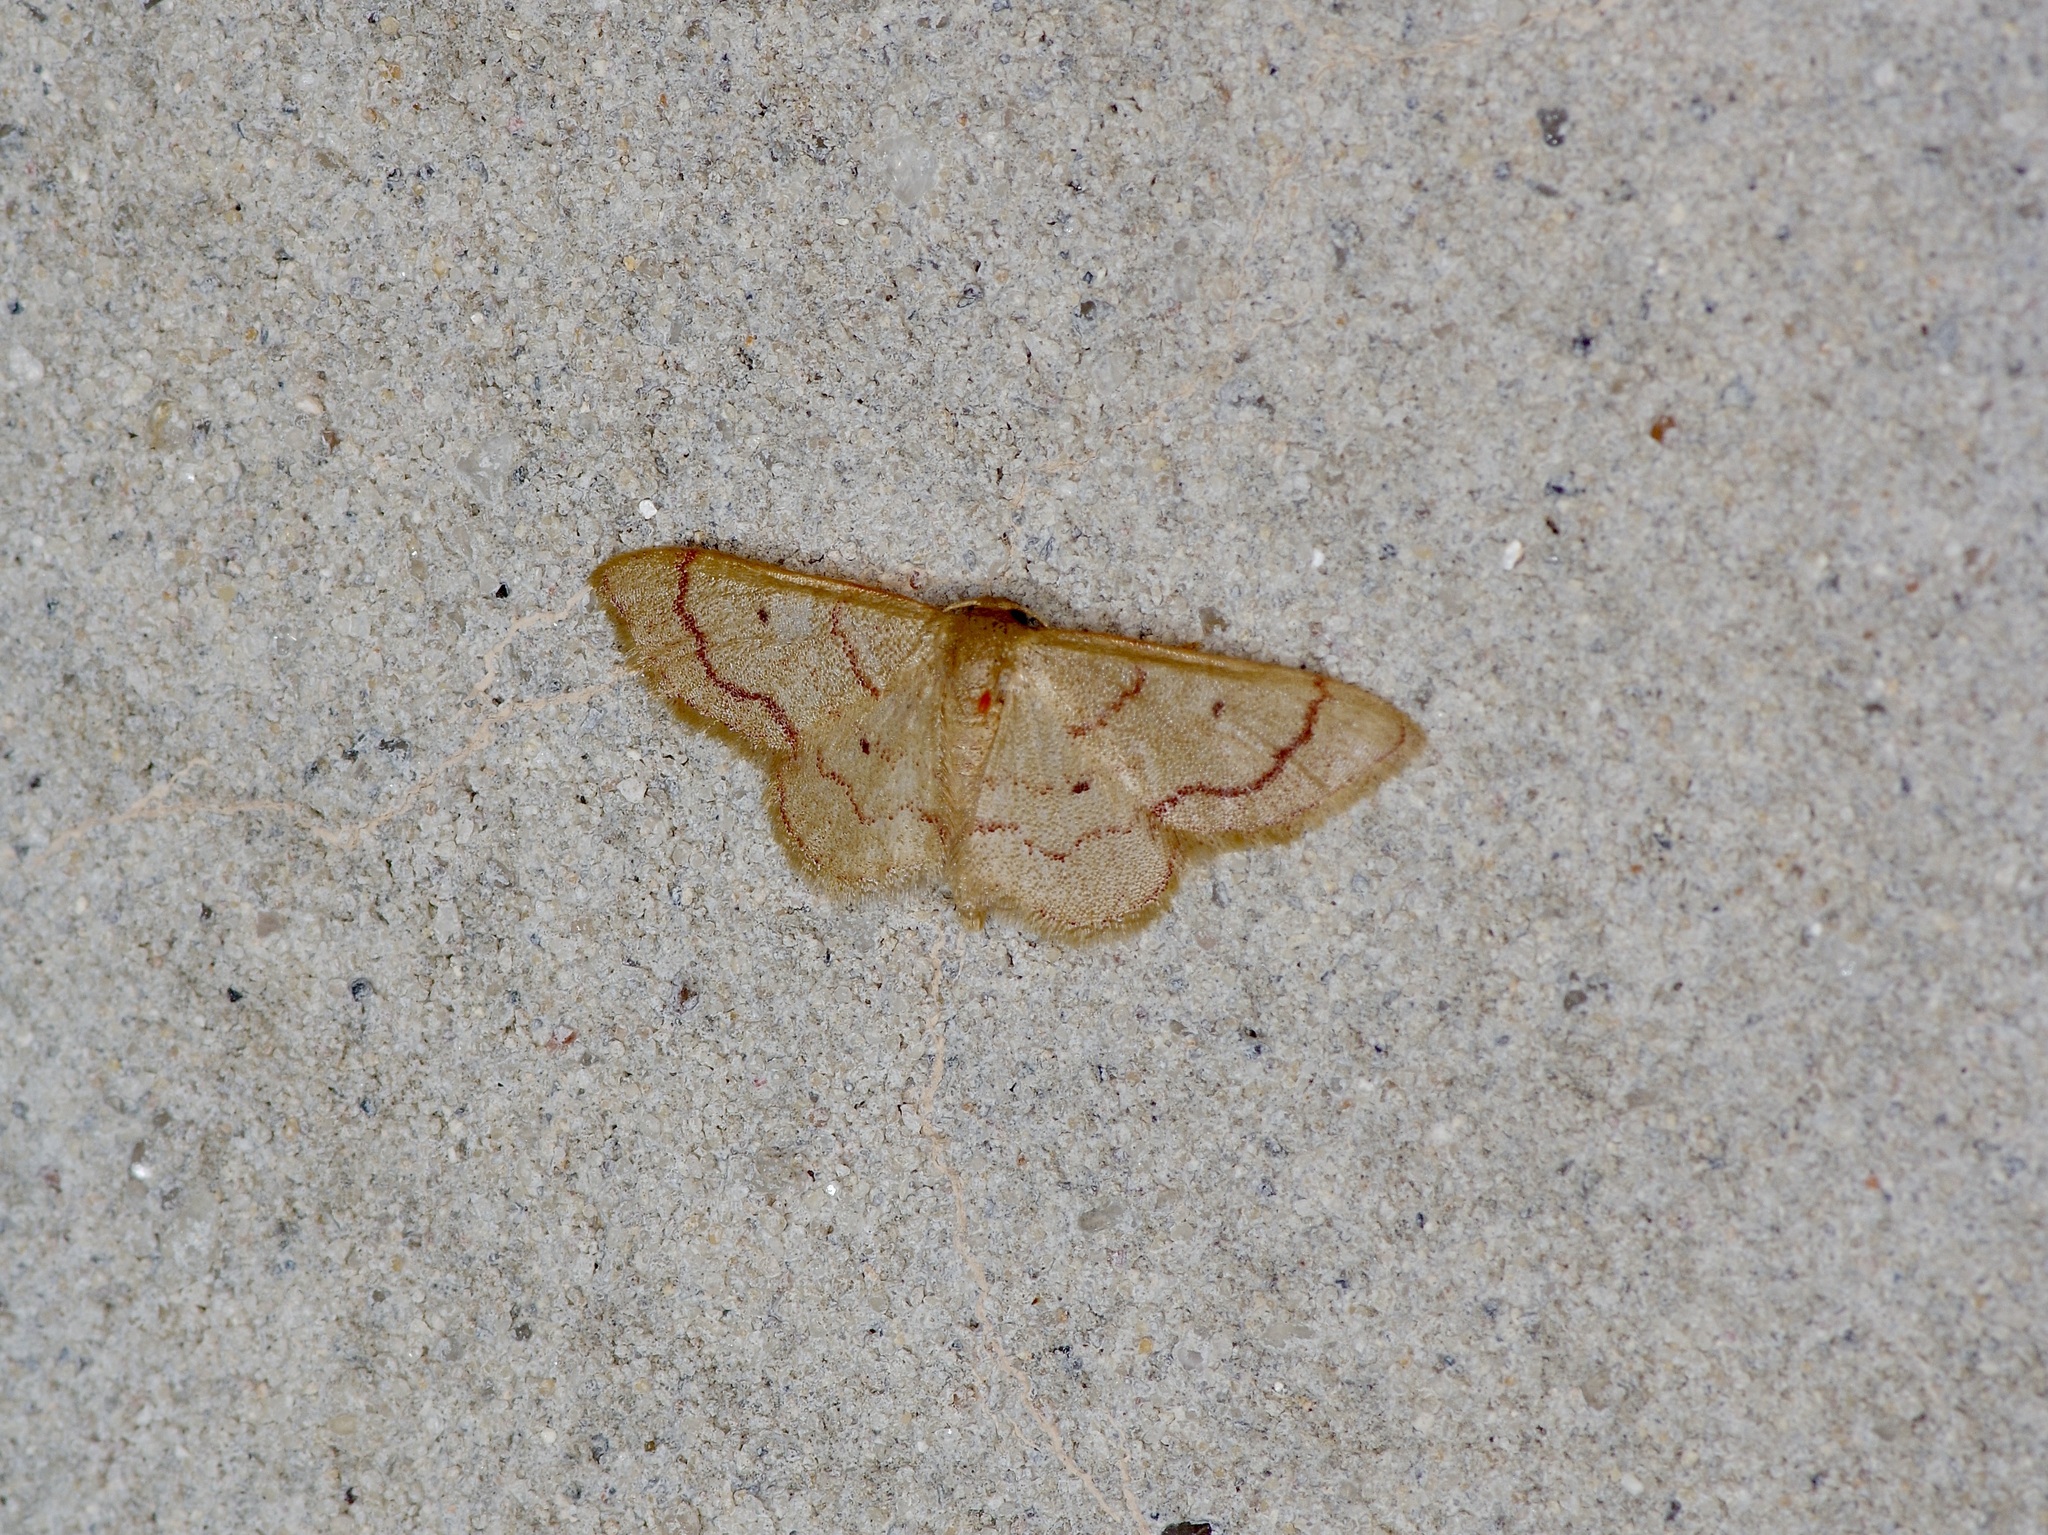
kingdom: Animalia
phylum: Arthropoda
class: Insecta
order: Lepidoptera
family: Geometridae
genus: Idaea
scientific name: Idaea demissaria
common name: Red-bordered wave
